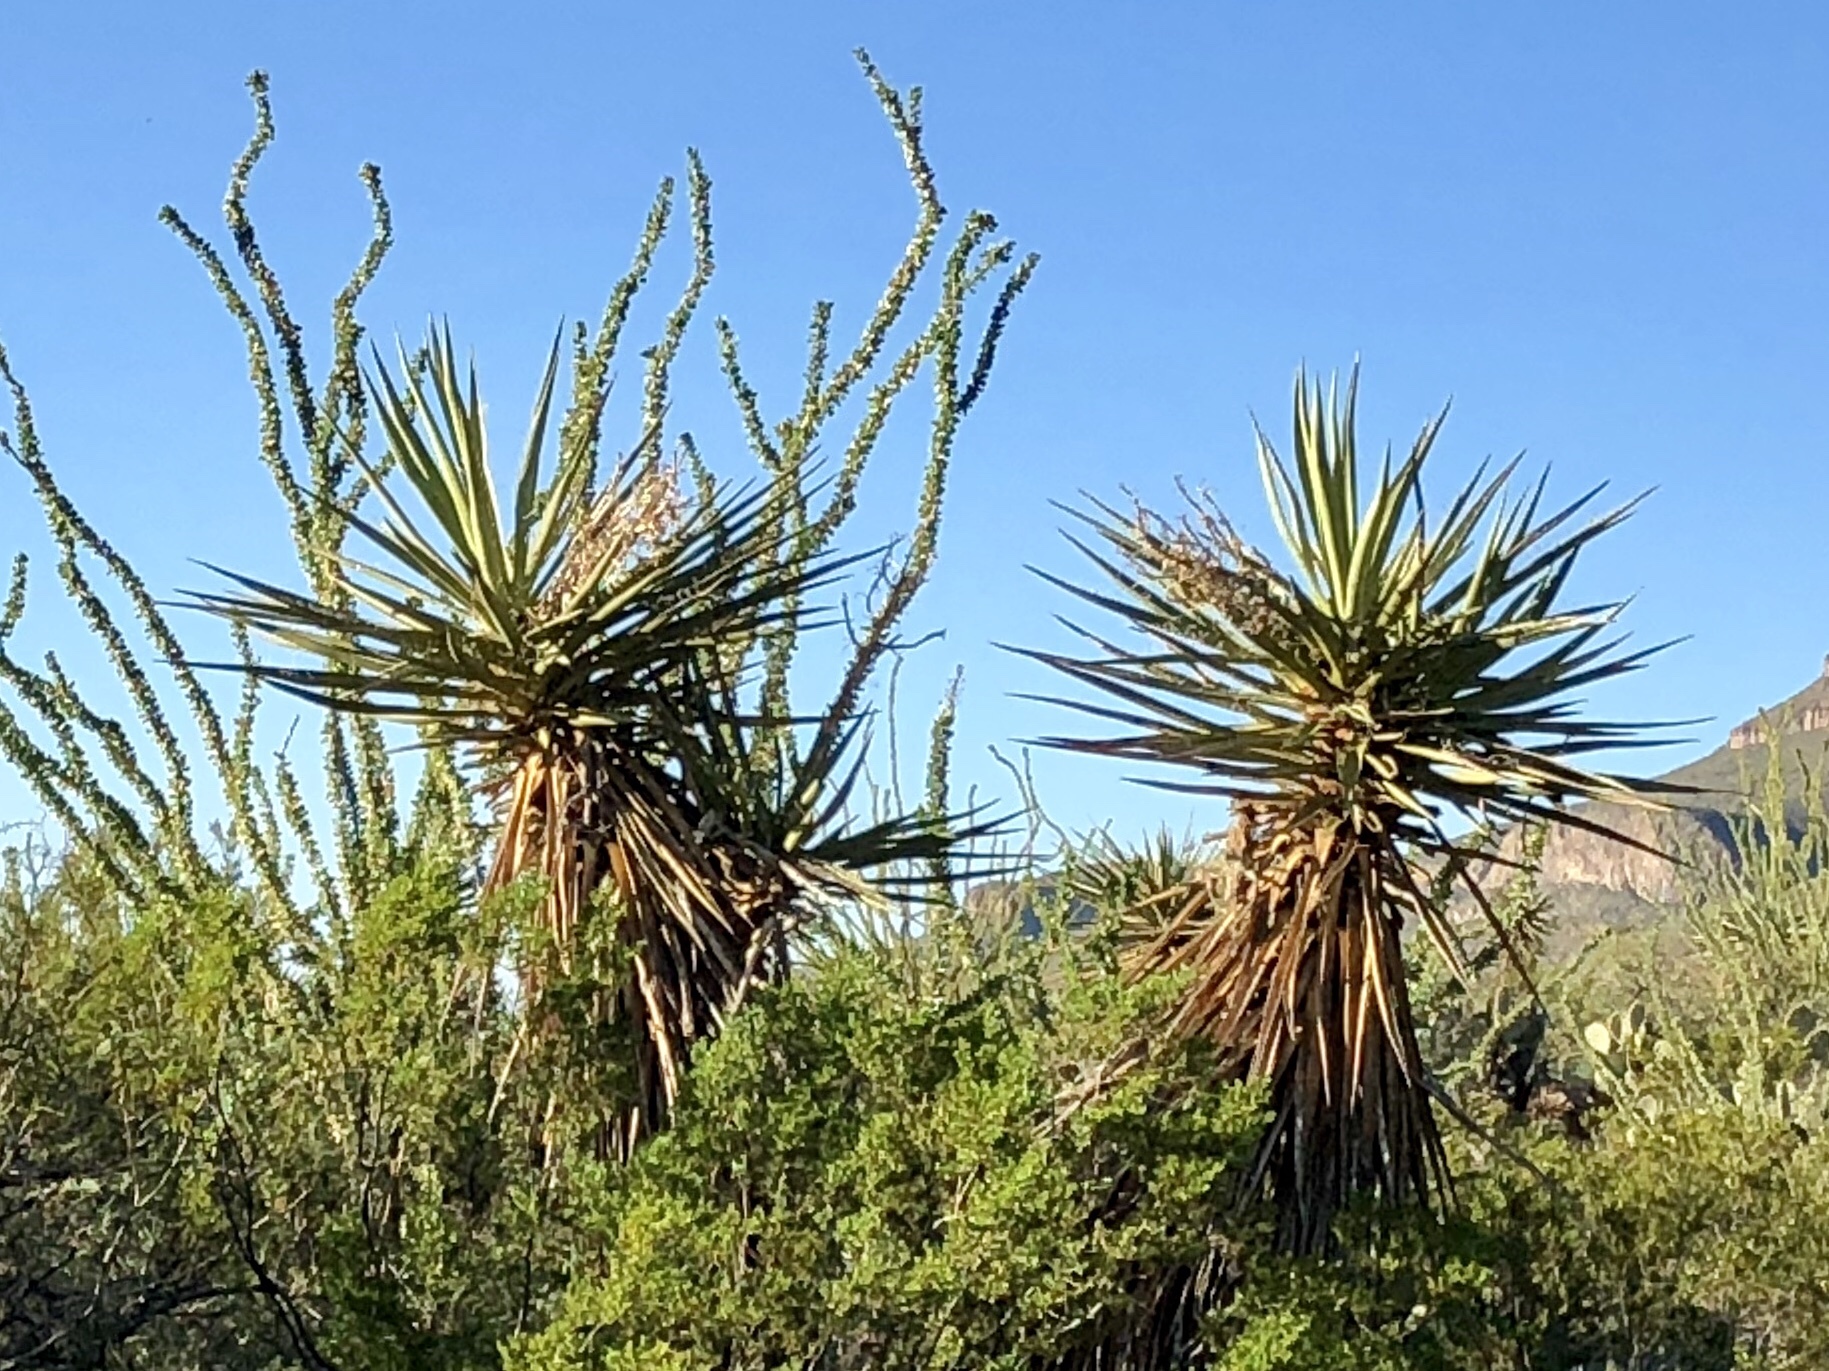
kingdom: Plantae
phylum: Tracheophyta
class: Liliopsida
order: Asparagales
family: Asparagaceae
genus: Yucca
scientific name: Yucca treculiana
